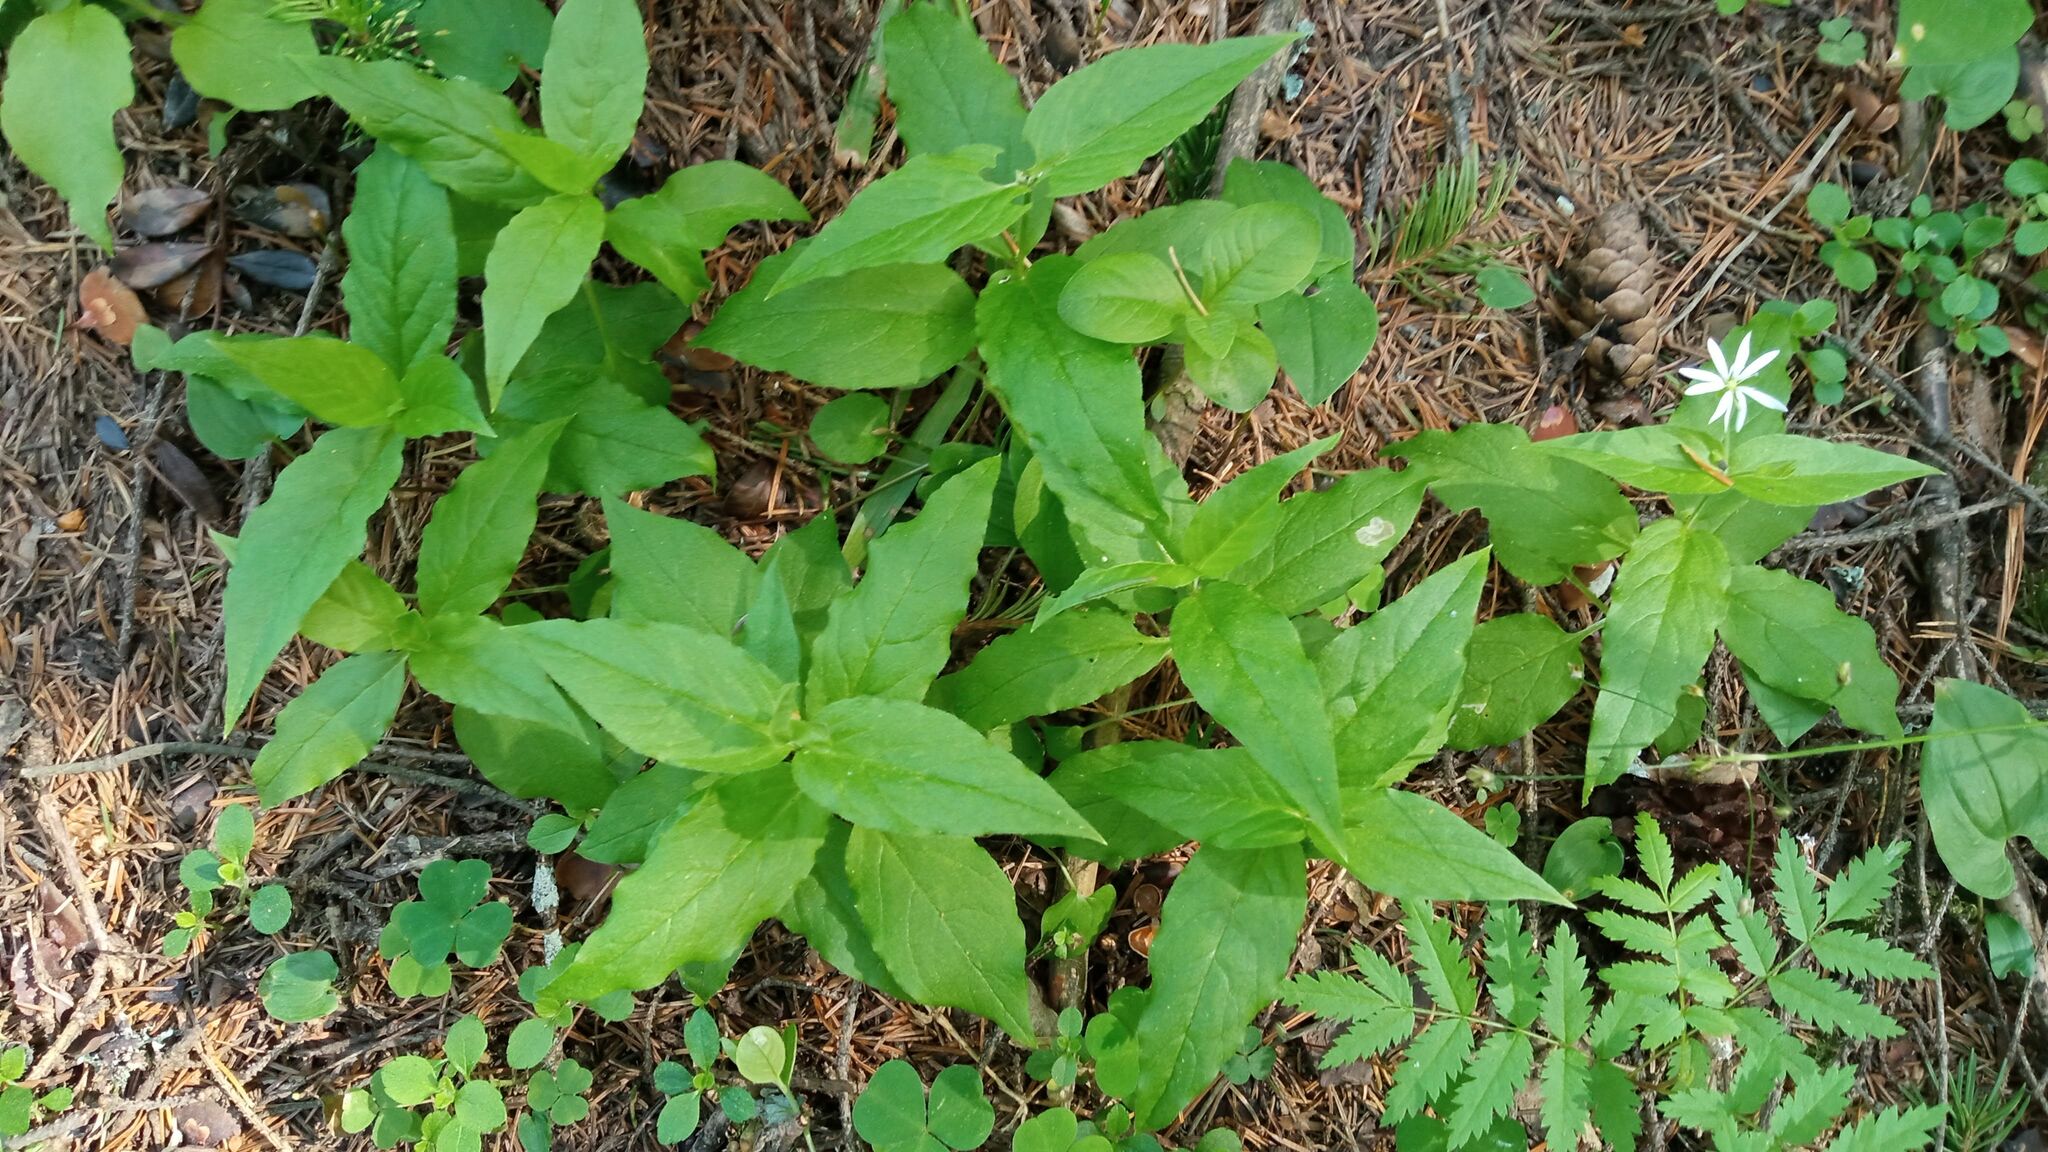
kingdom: Plantae
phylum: Tracheophyta
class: Magnoliopsida
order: Caryophyllales
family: Caryophyllaceae
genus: Stellaria
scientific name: Stellaria bungeana
